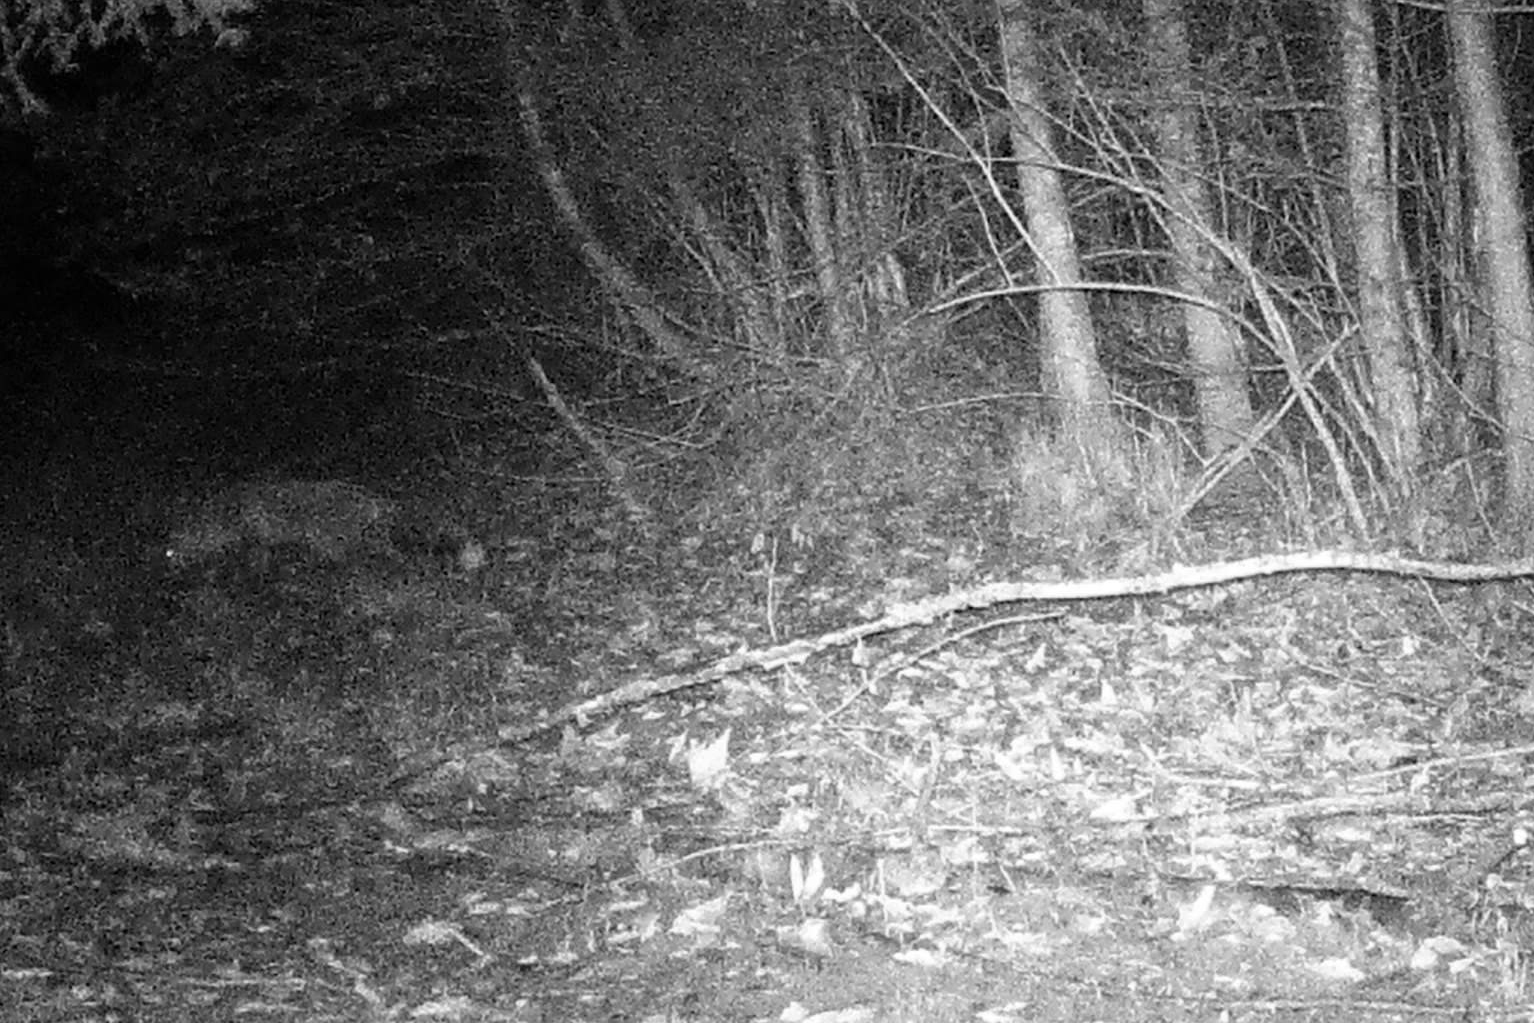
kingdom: Animalia
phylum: Chordata
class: Mammalia
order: Carnivora
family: Canidae
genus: Vulpes
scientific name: Vulpes vulpes
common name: Red fox
